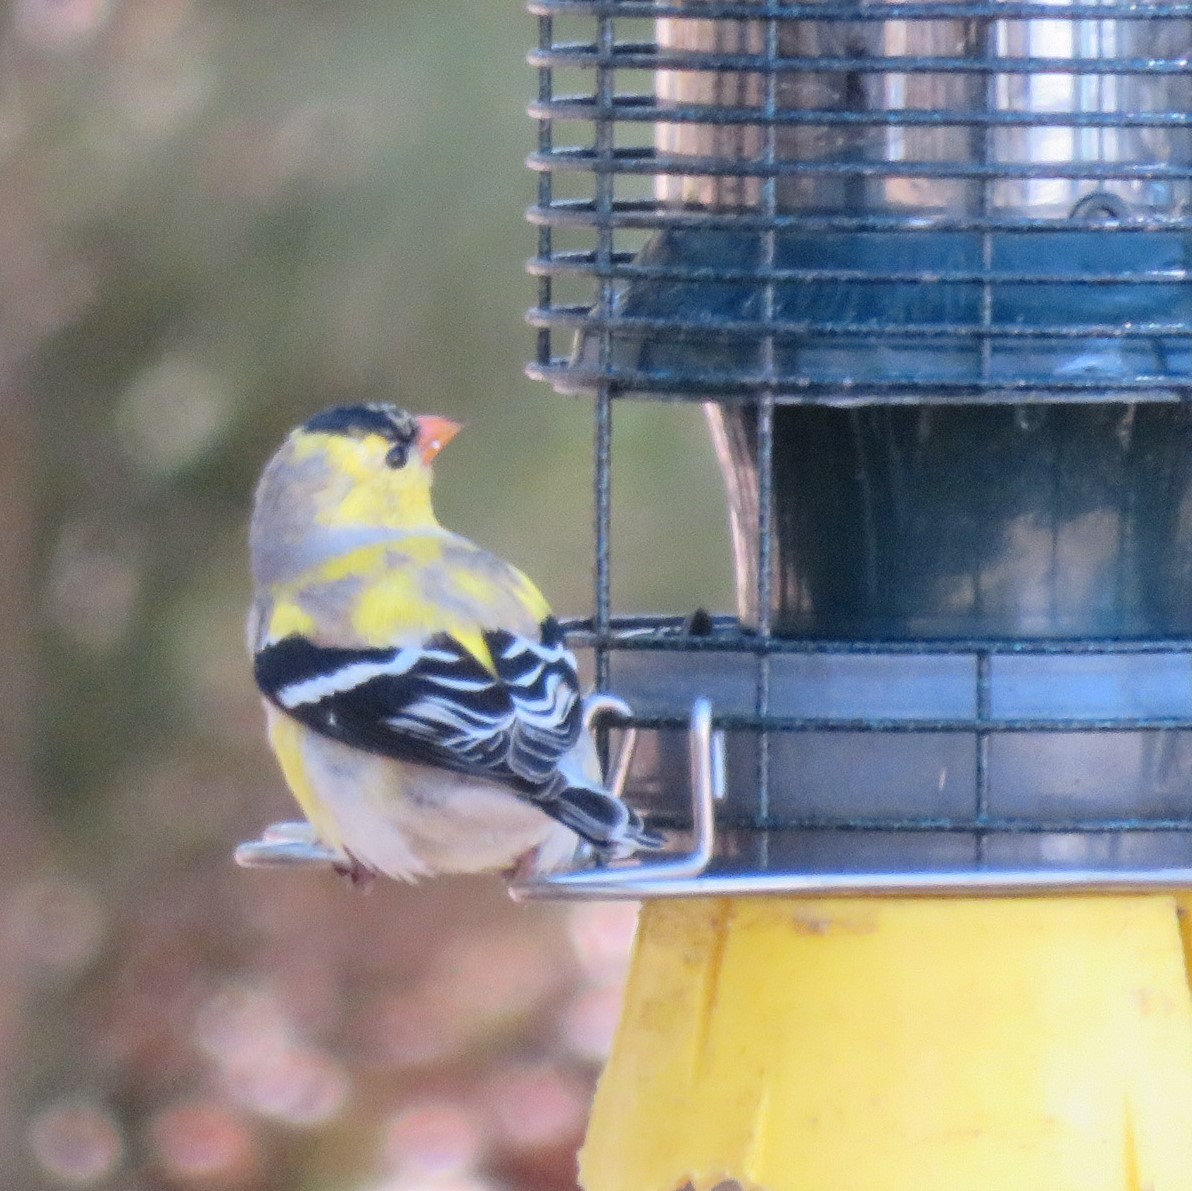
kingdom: Animalia
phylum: Chordata
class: Aves
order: Passeriformes
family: Fringillidae
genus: Spinus
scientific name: Spinus tristis
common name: American goldfinch
